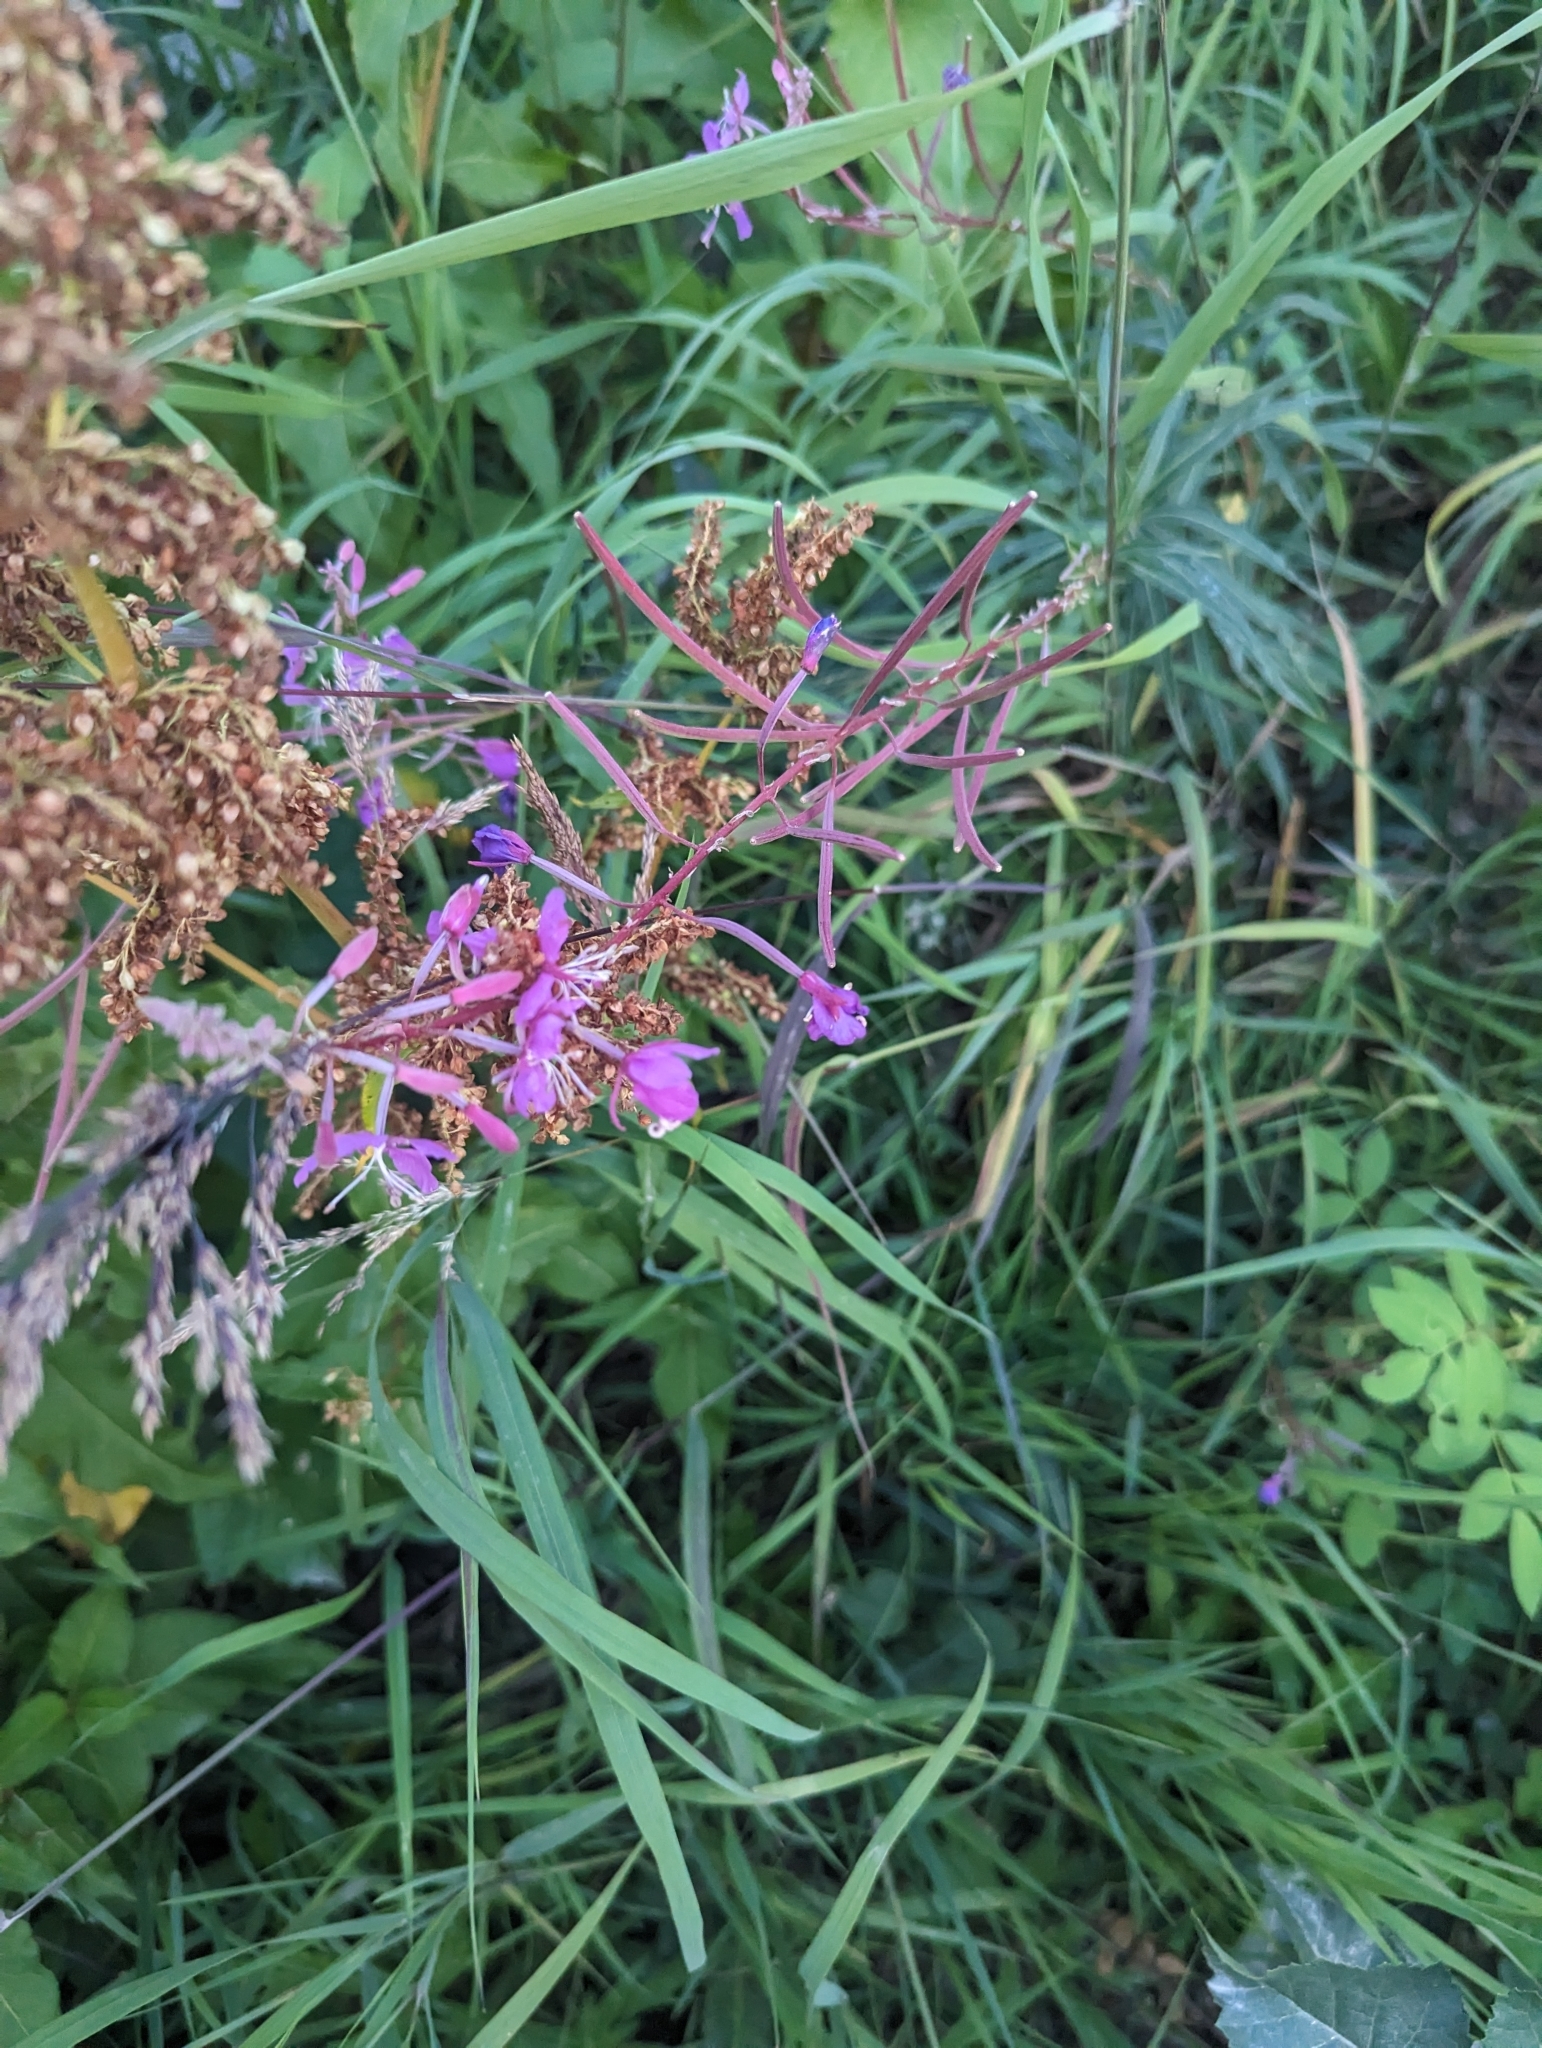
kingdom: Plantae
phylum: Tracheophyta
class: Magnoliopsida
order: Myrtales
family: Onagraceae
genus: Chamaenerion
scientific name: Chamaenerion angustifolium
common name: Fireweed
